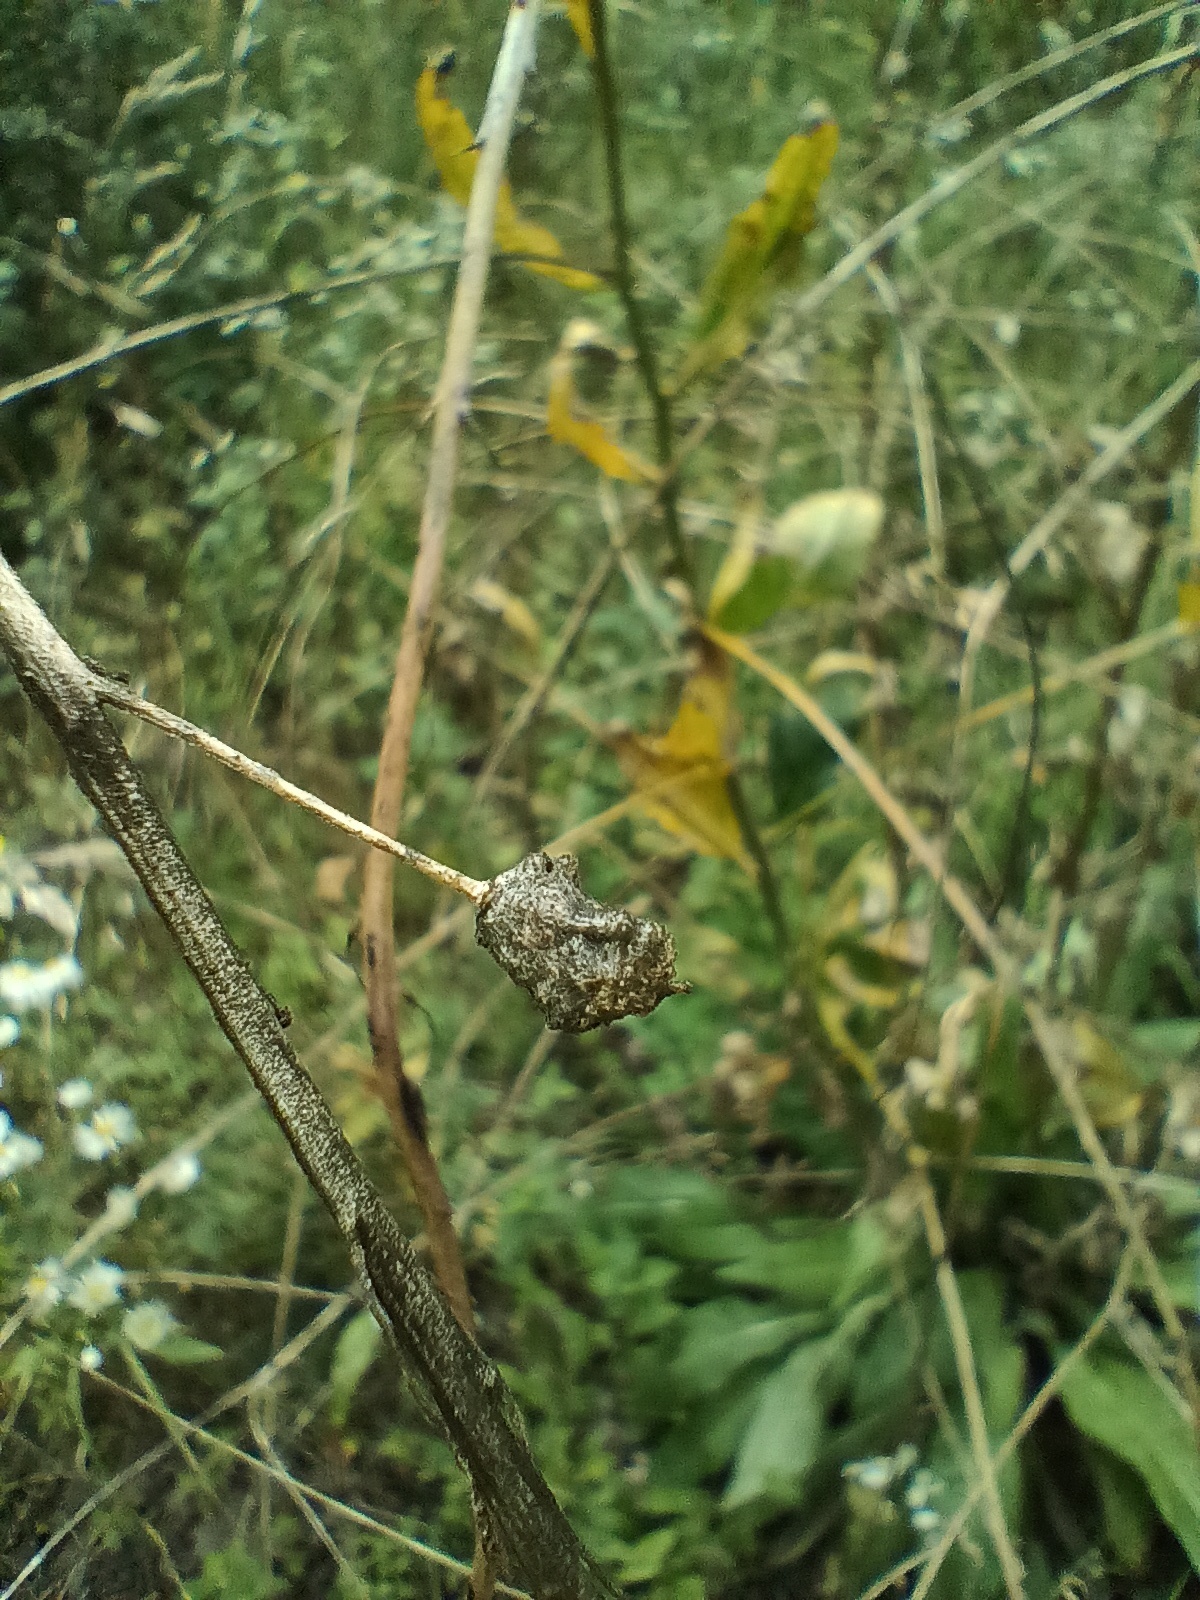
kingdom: Plantae
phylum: Tracheophyta
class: Magnoliopsida
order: Brassicales
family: Brassicaceae
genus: Bunias
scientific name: Bunias orientalis
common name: Warty-cabbage
